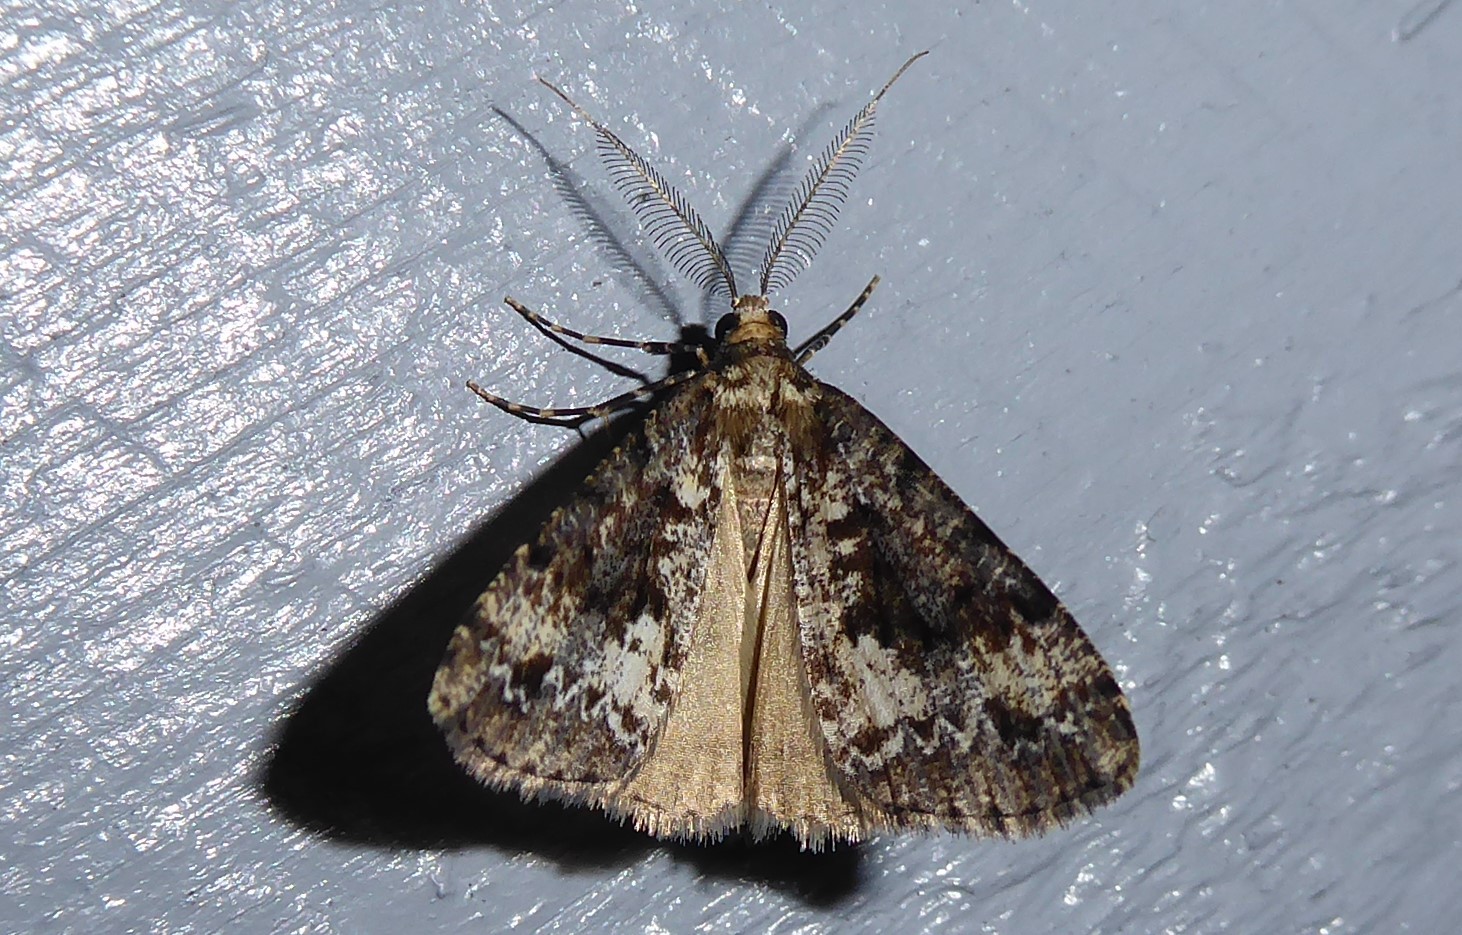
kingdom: Animalia
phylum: Arthropoda
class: Insecta
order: Lepidoptera
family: Geometridae
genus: Pseudocoremia
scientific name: Pseudocoremia leucelaea
